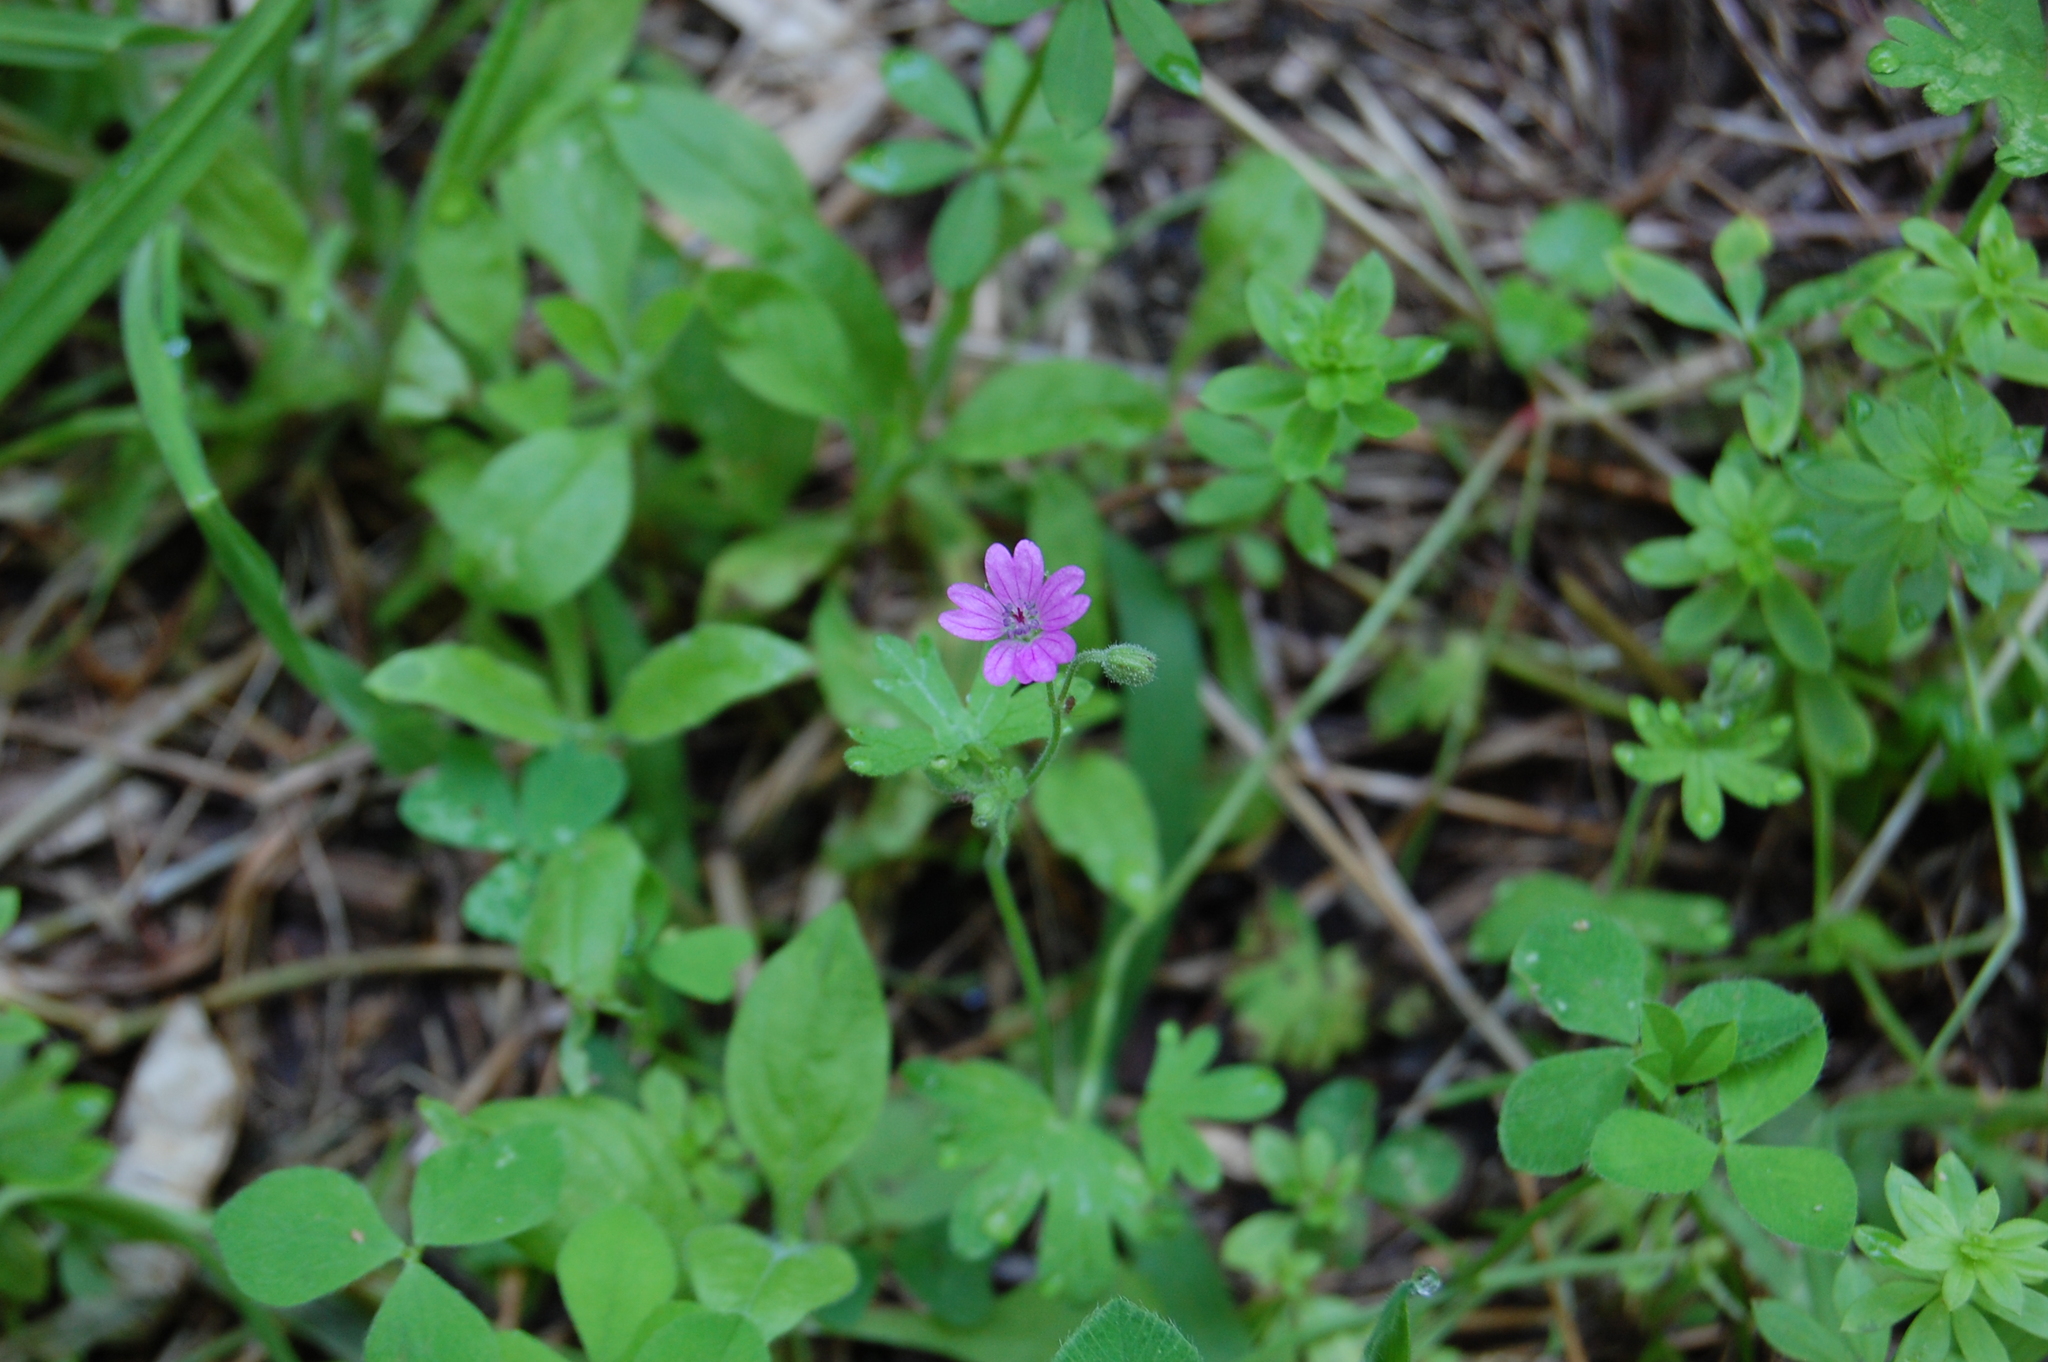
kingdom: Plantae
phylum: Tracheophyta
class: Magnoliopsida
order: Geraniales
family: Geraniaceae
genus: Geranium
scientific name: Geranium molle
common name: Dove's-foot crane's-bill
